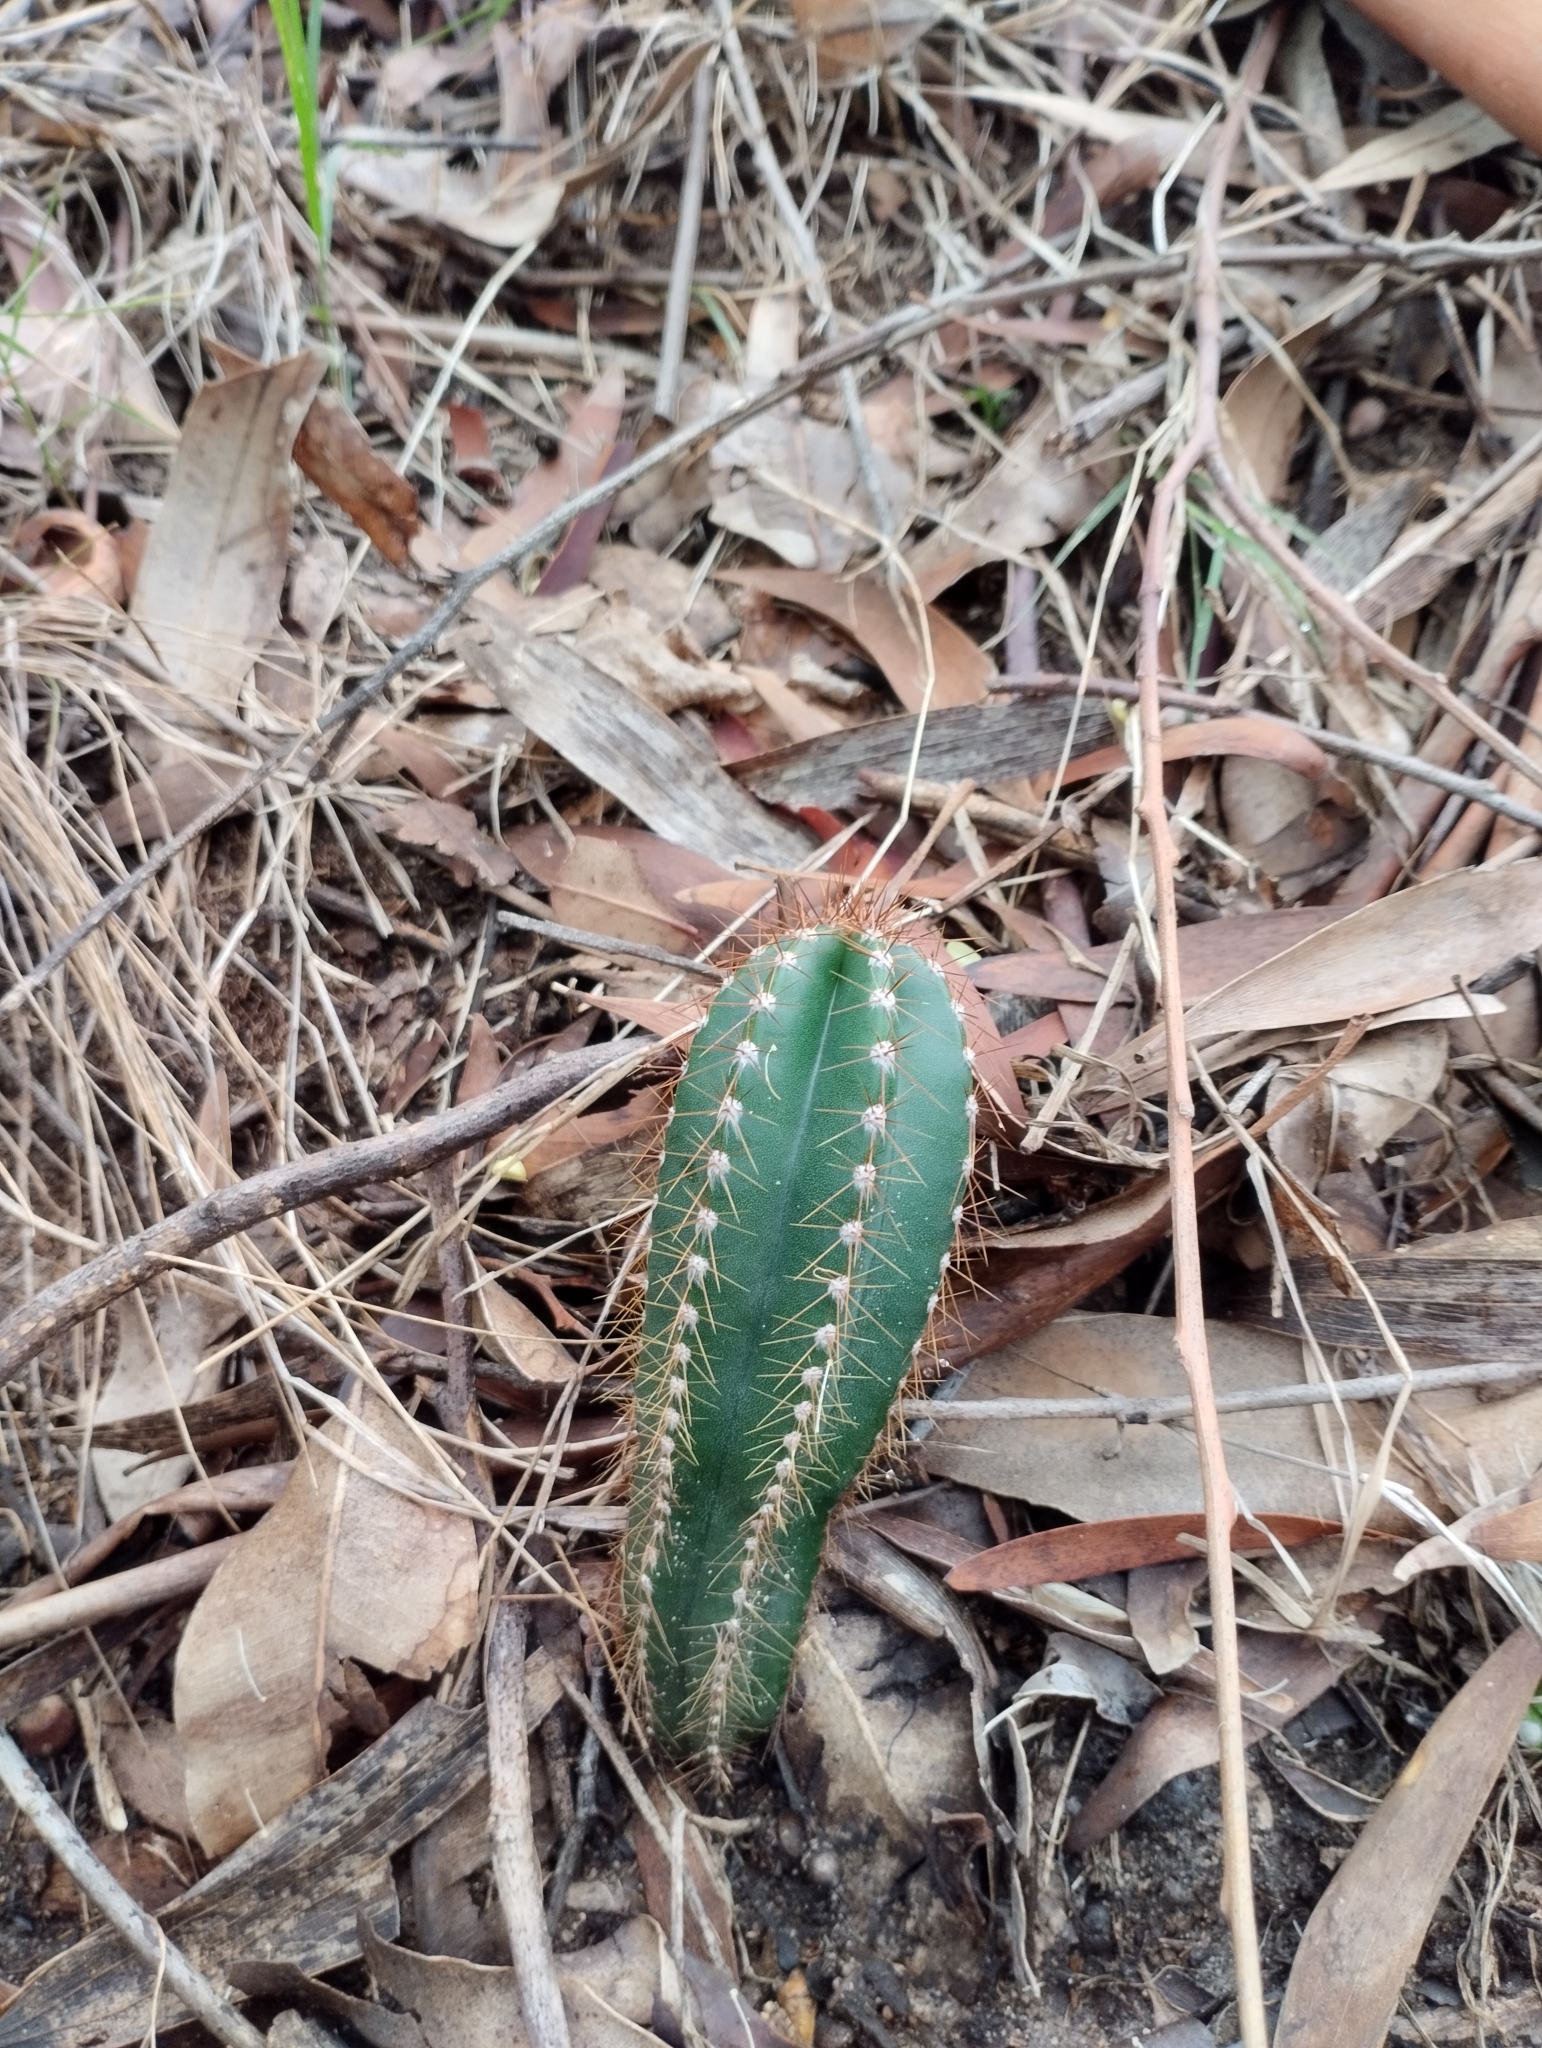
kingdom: Plantae
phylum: Tracheophyta
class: Magnoliopsida
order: Caryophyllales
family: Cactaceae
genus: Cereus
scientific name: Cereus hildmannianus
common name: Hedge cactus
